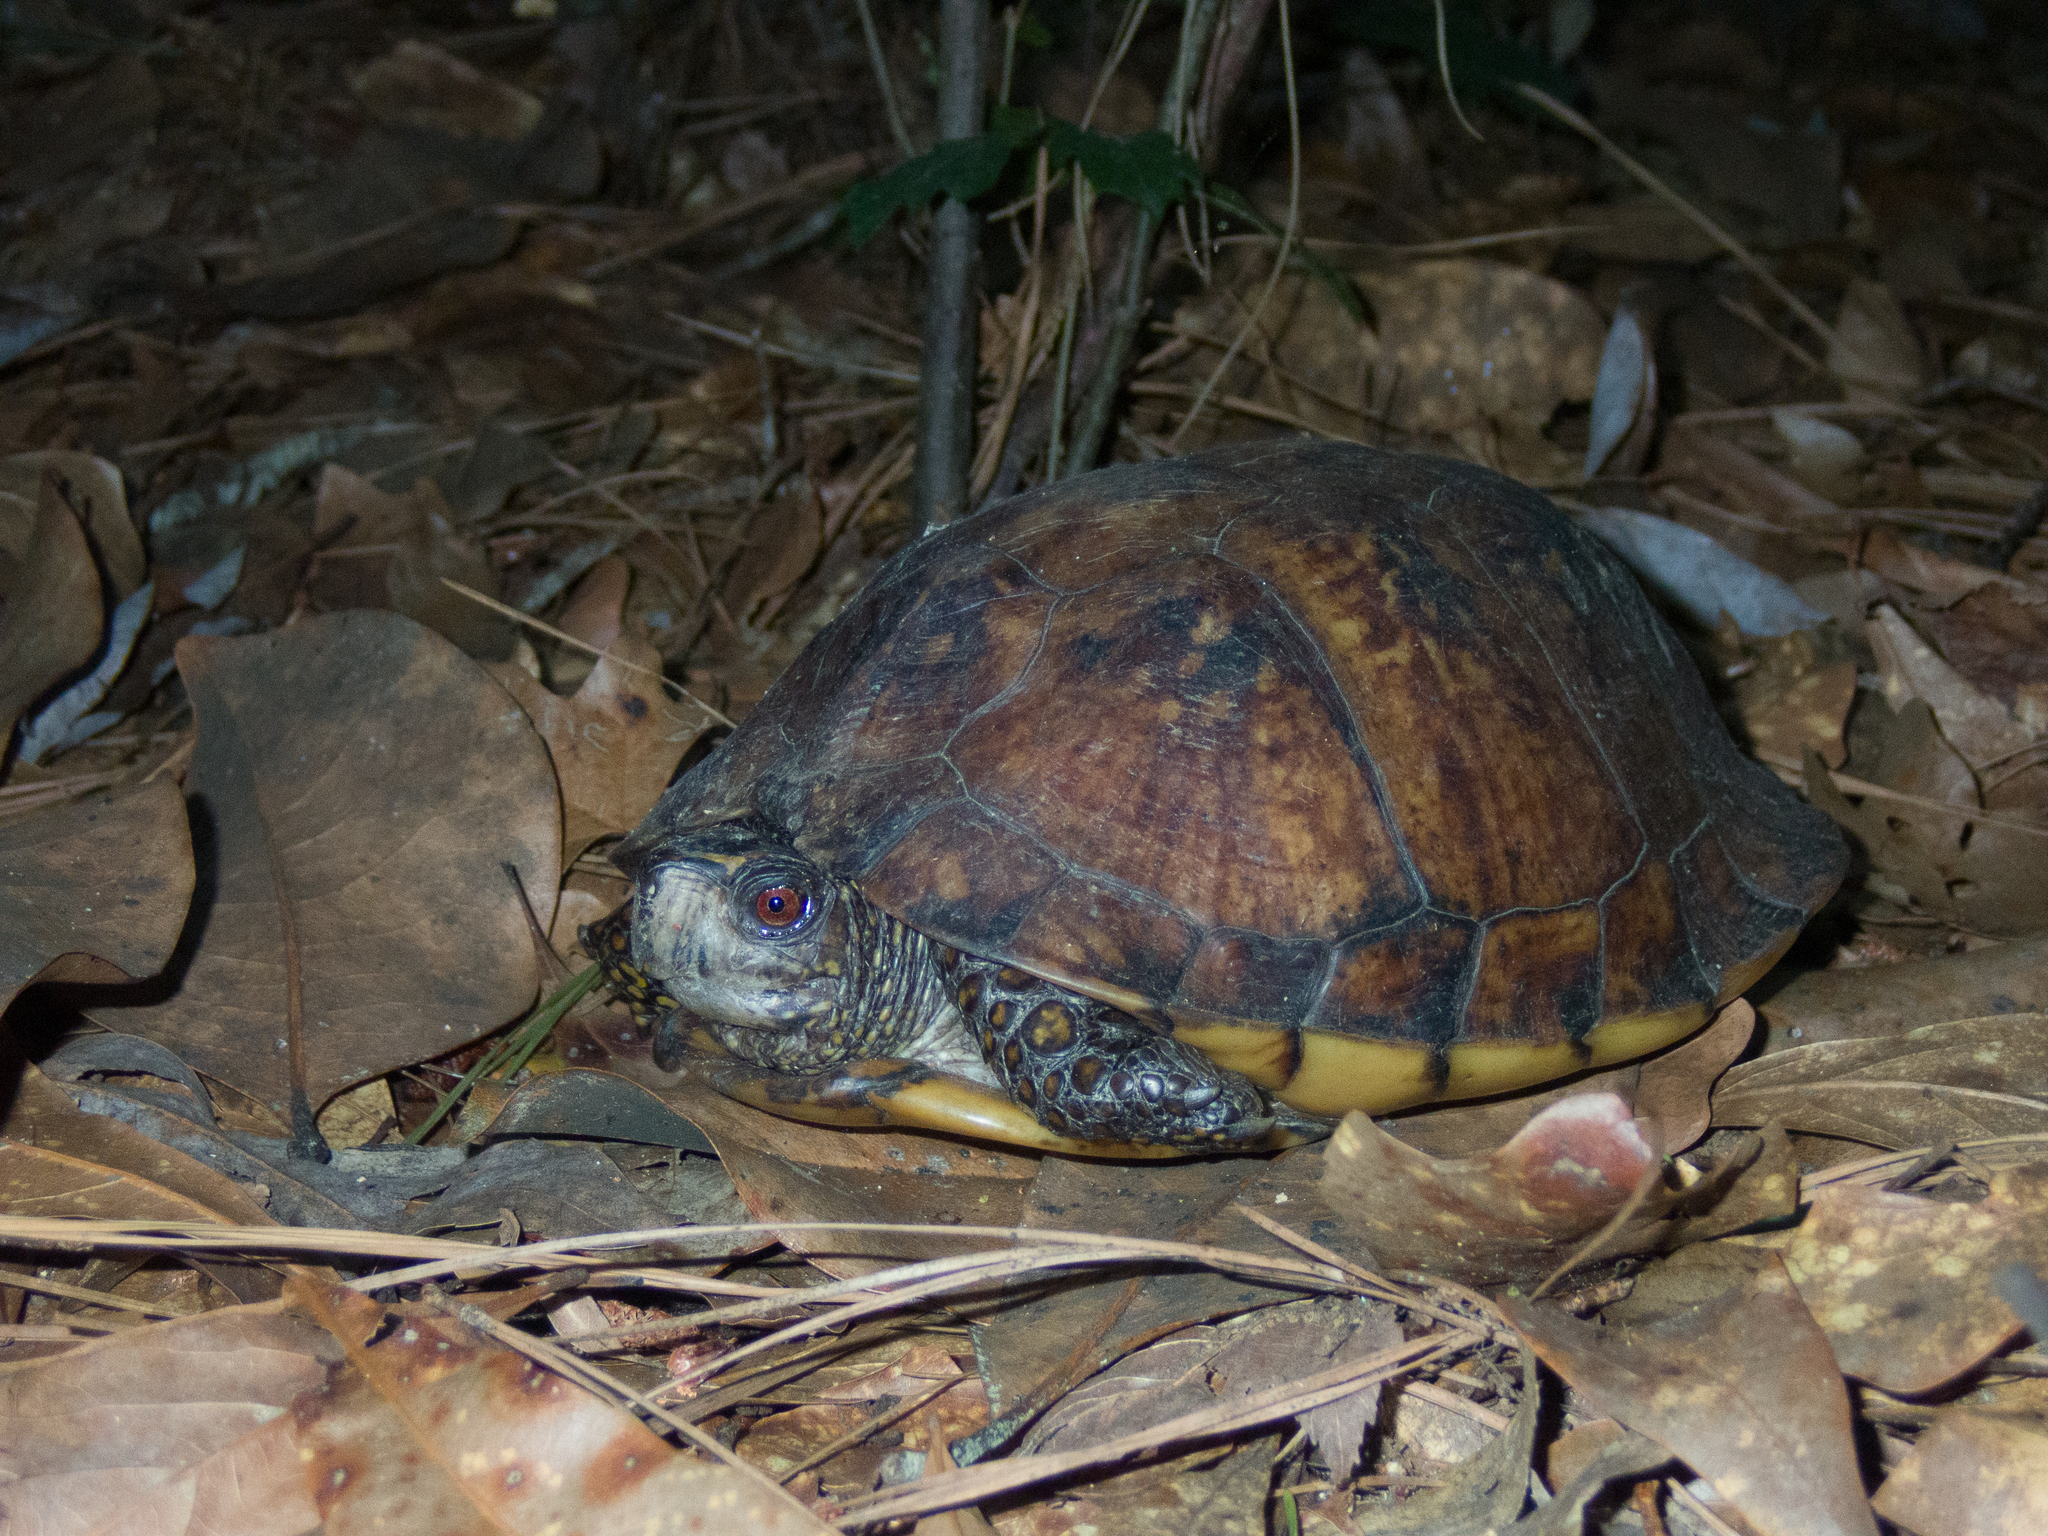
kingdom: Animalia
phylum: Chordata
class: Testudines
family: Emydidae
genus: Terrapene
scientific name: Terrapene carolina
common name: Common box turtle
